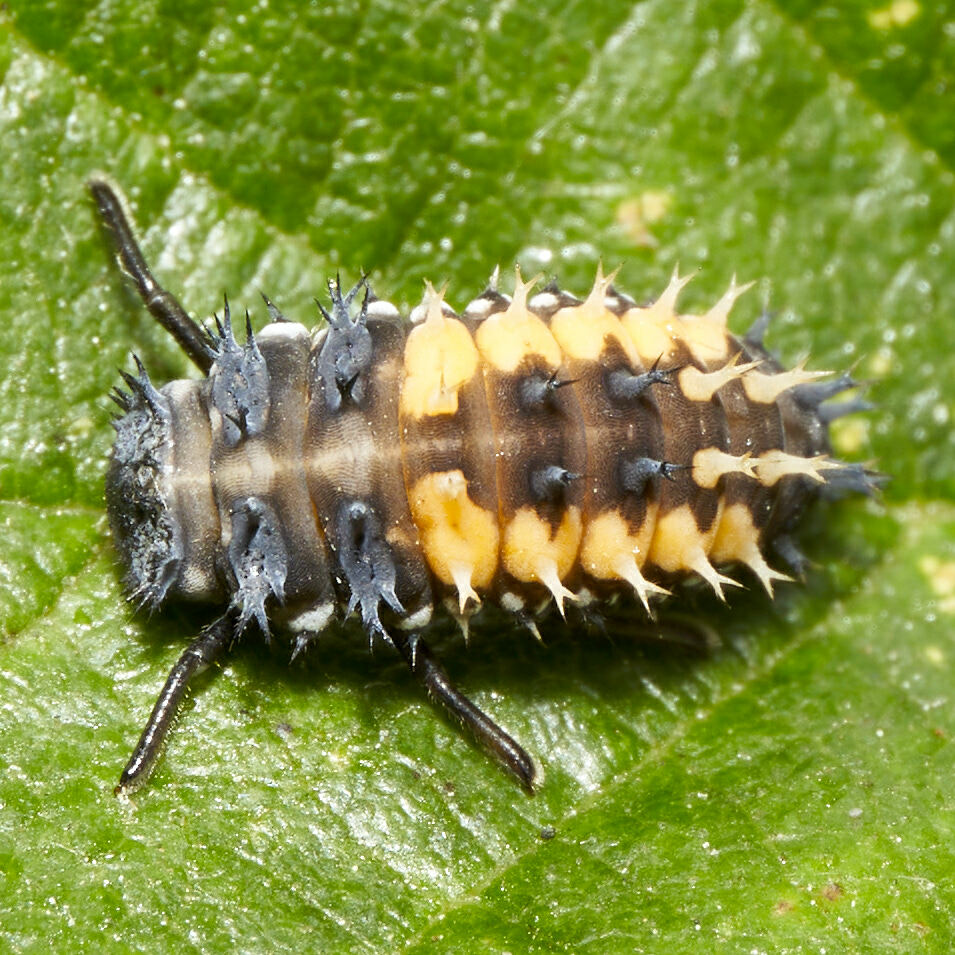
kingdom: Animalia
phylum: Arthropoda
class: Insecta
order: Coleoptera
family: Coccinellidae
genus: Harmonia
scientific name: Harmonia axyridis
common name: Harlequin ladybird
